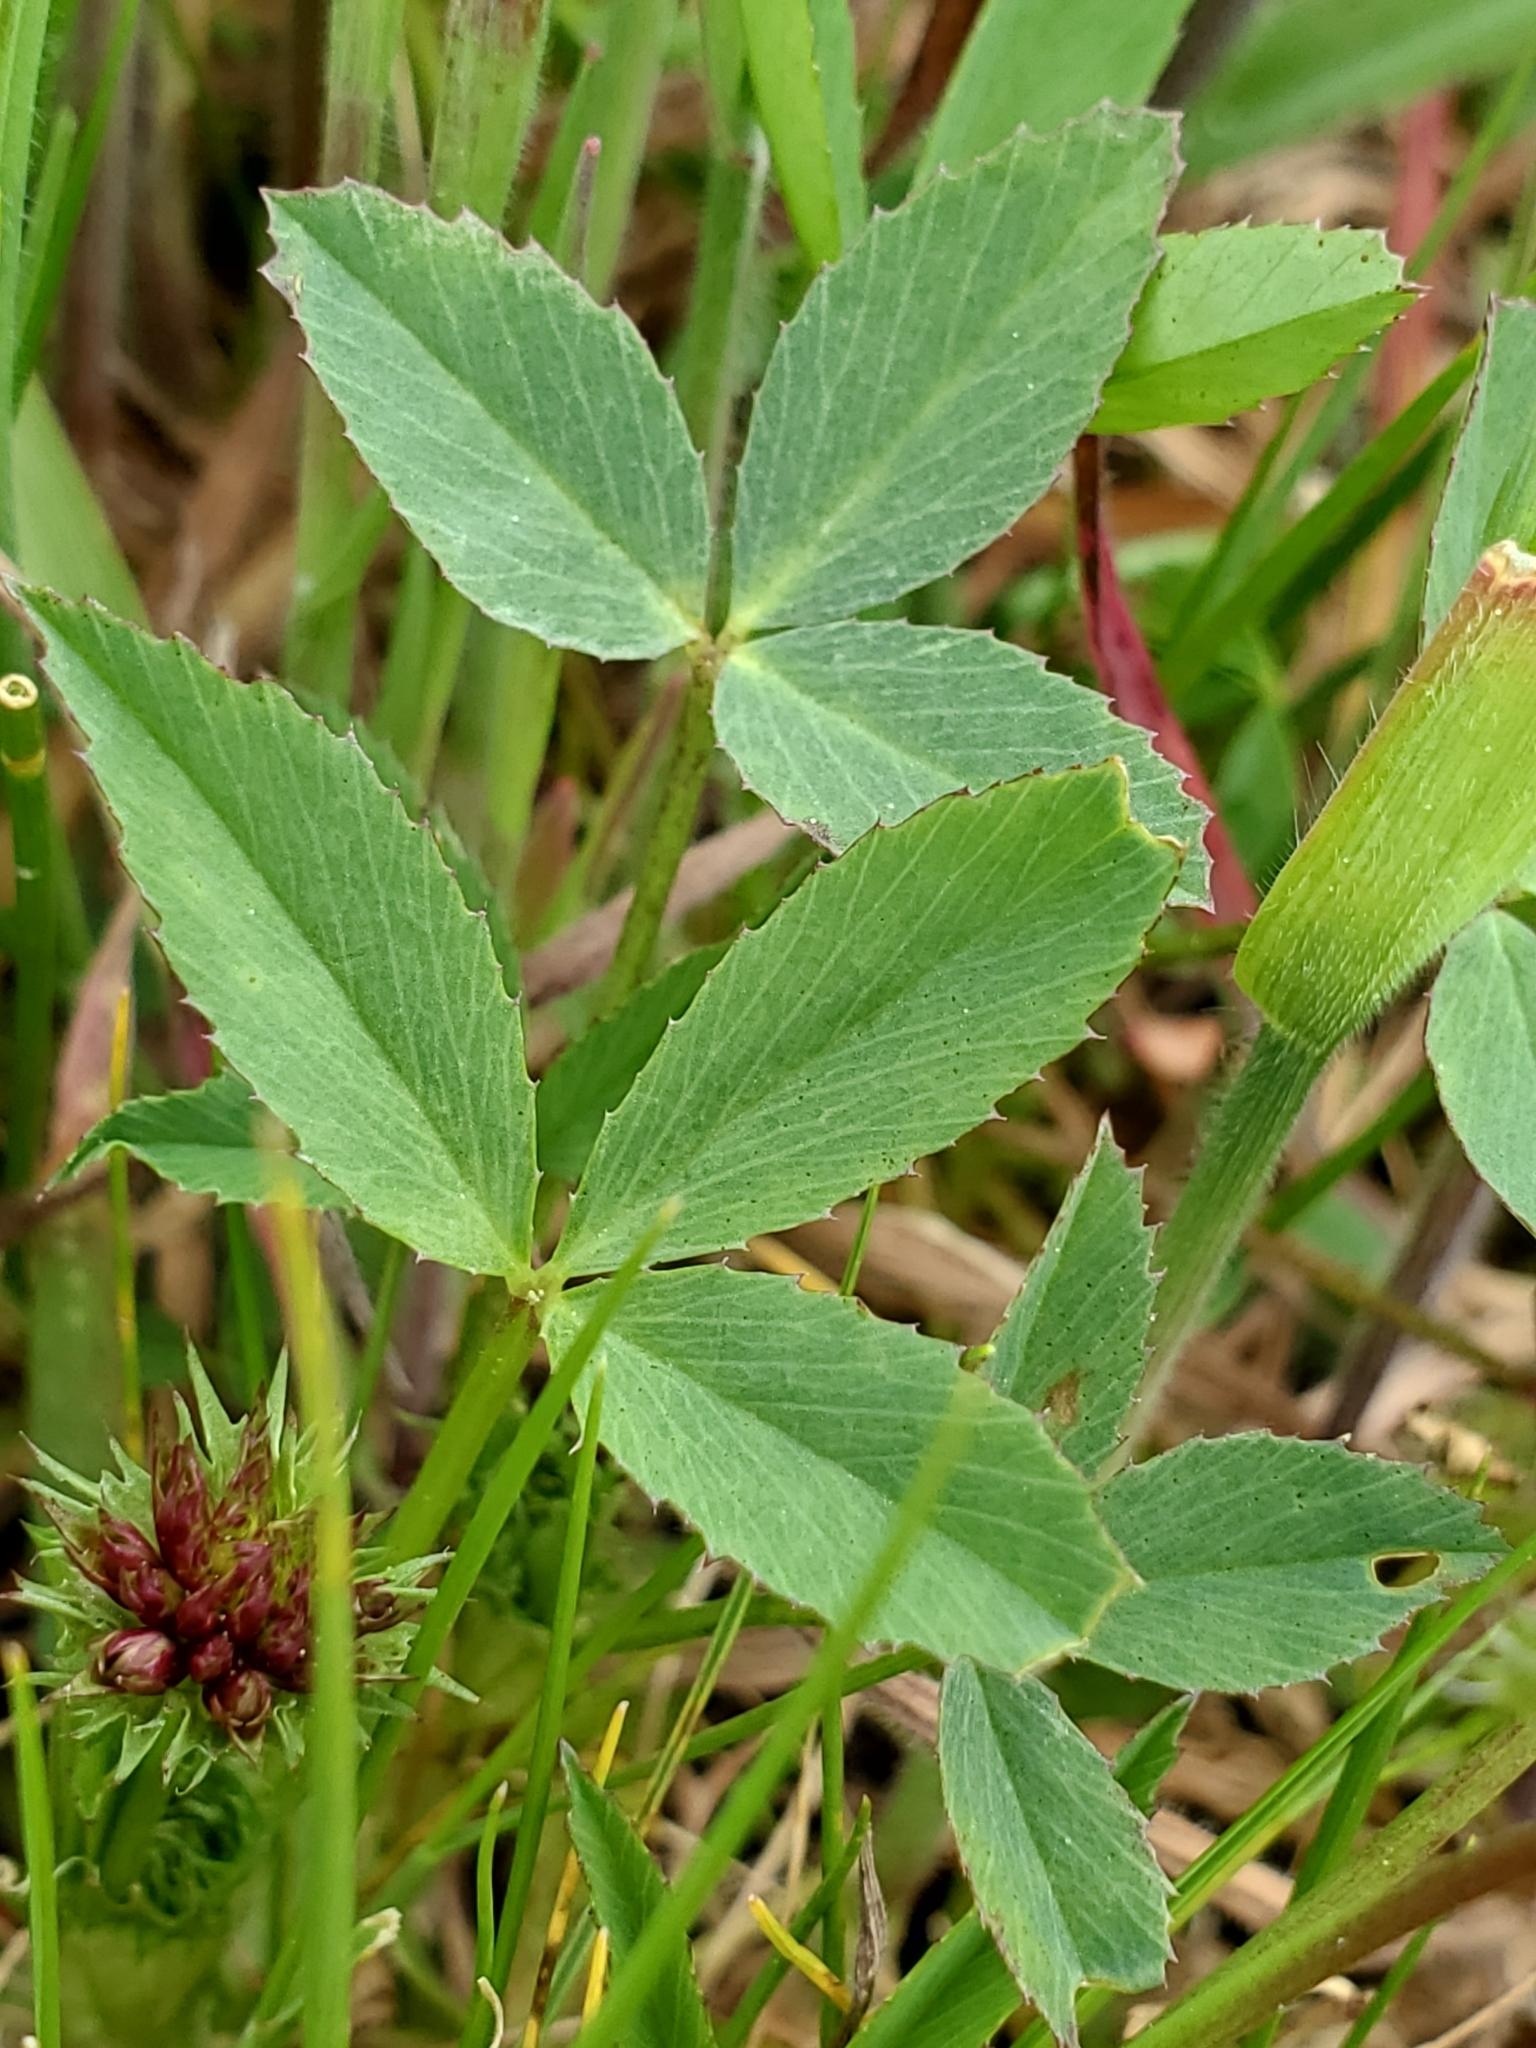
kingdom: Plantae
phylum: Tracheophyta
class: Magnoliopsida
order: Fabales
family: Fabaceae
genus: Trifolium
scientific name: Trifolium willdenovii
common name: Tomcat clover
